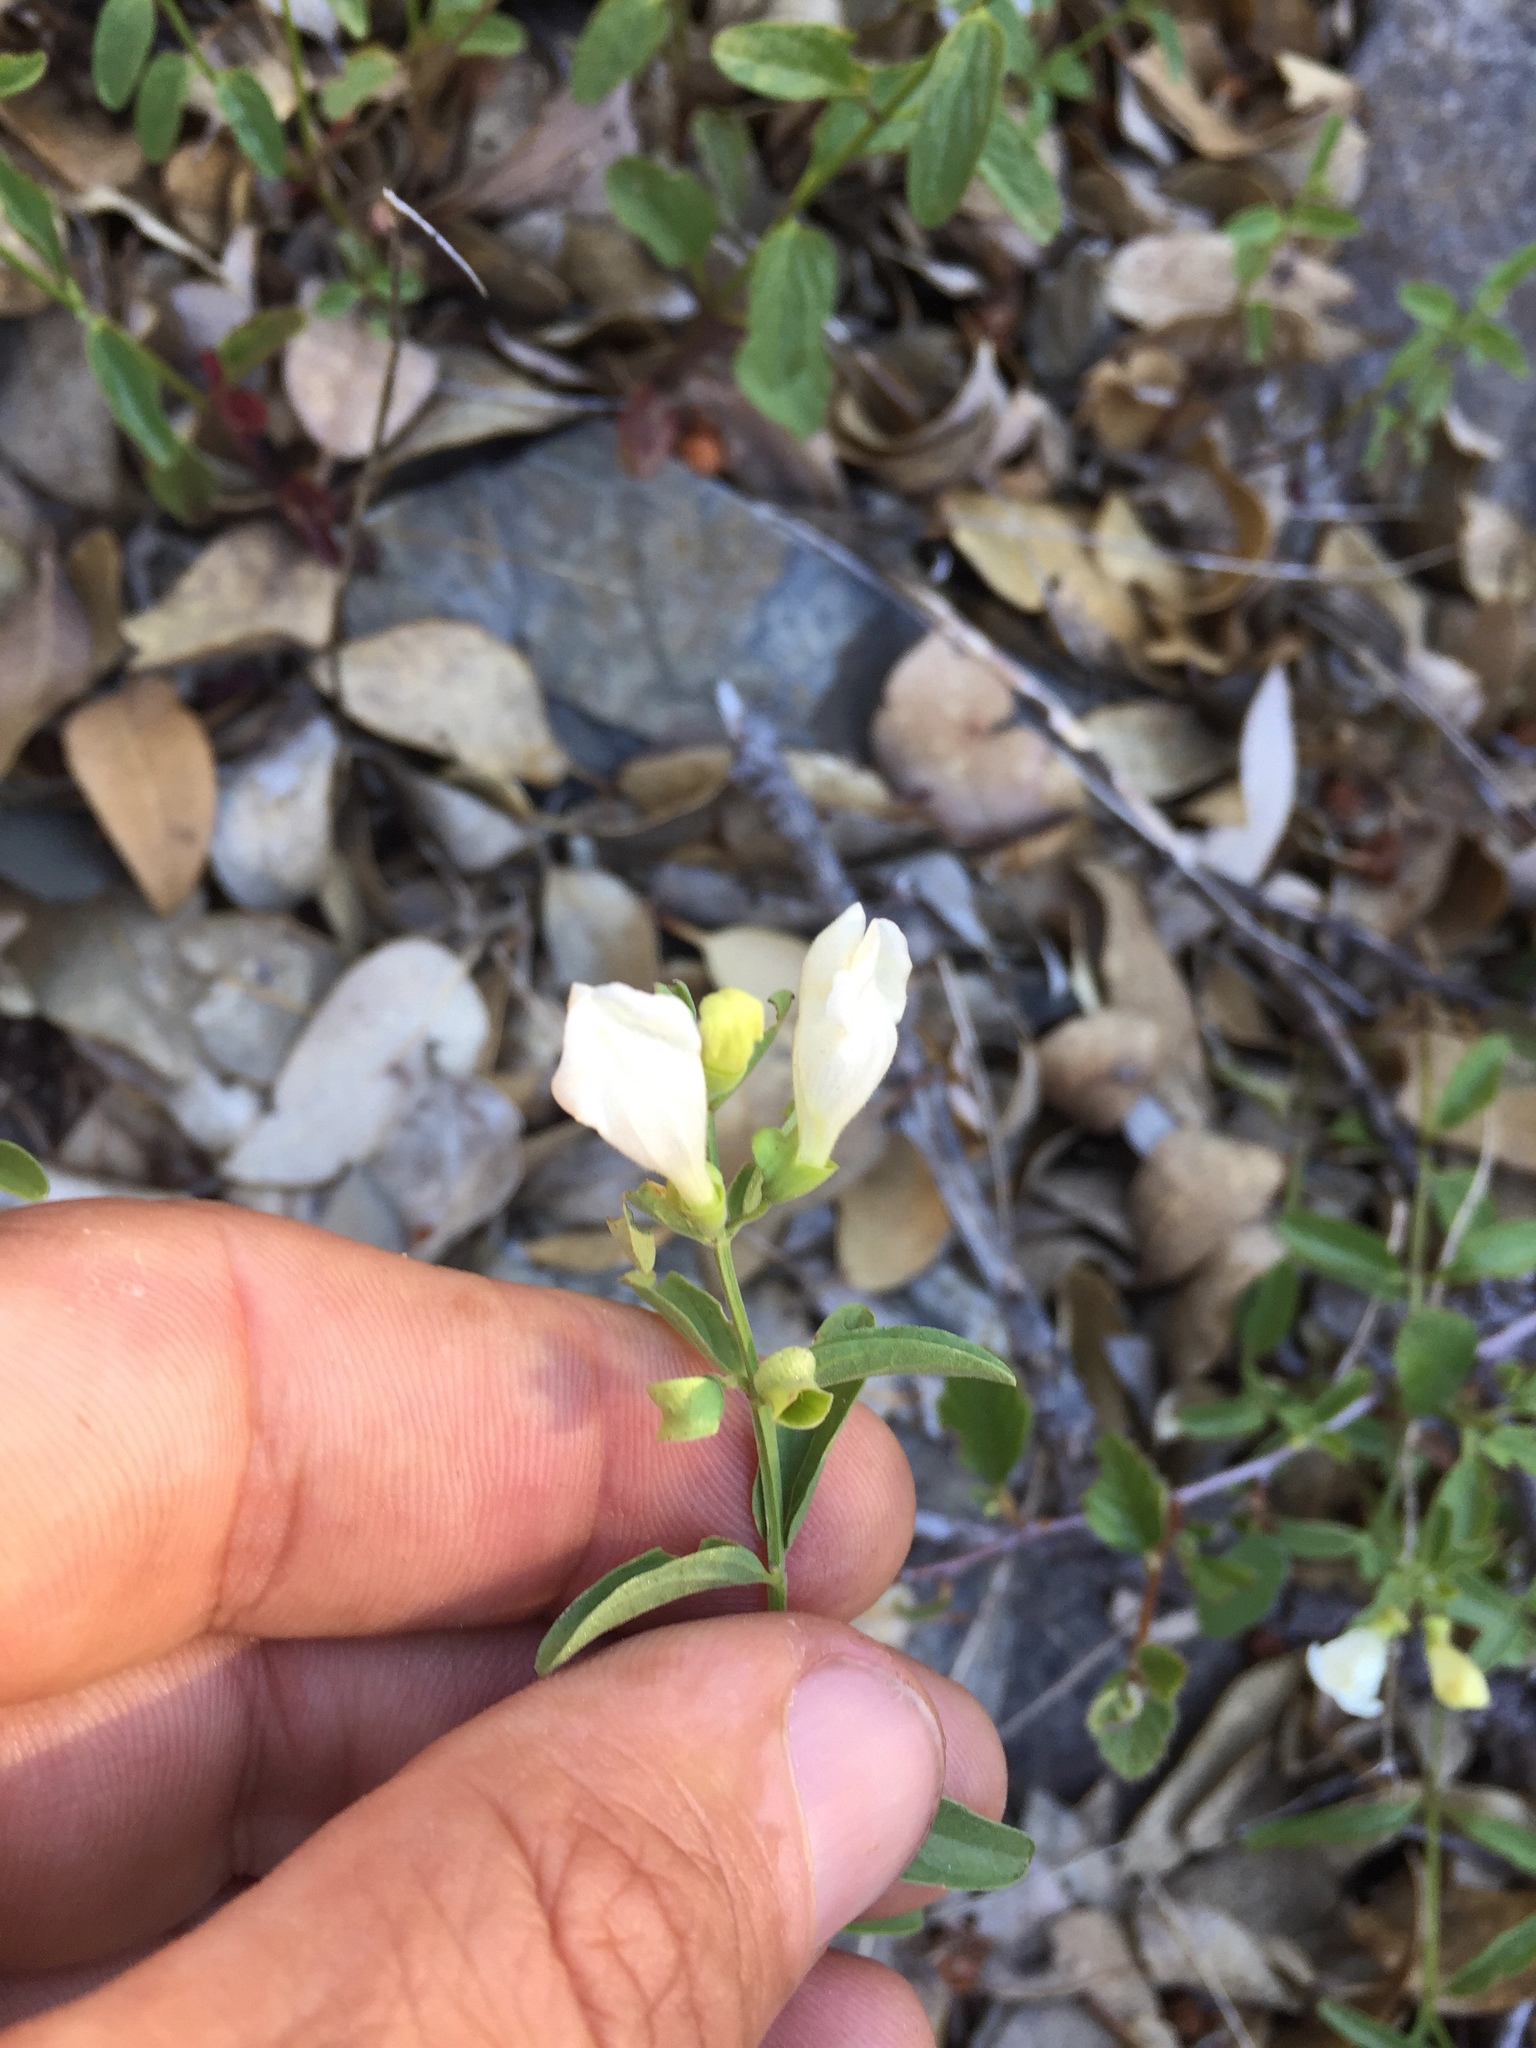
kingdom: Plantae
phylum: Tracheophyta
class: Magnoliopsida
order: Lamiales
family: Lamiaceae
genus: Scutellaria
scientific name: Scutellaria californica
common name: California scullcap
